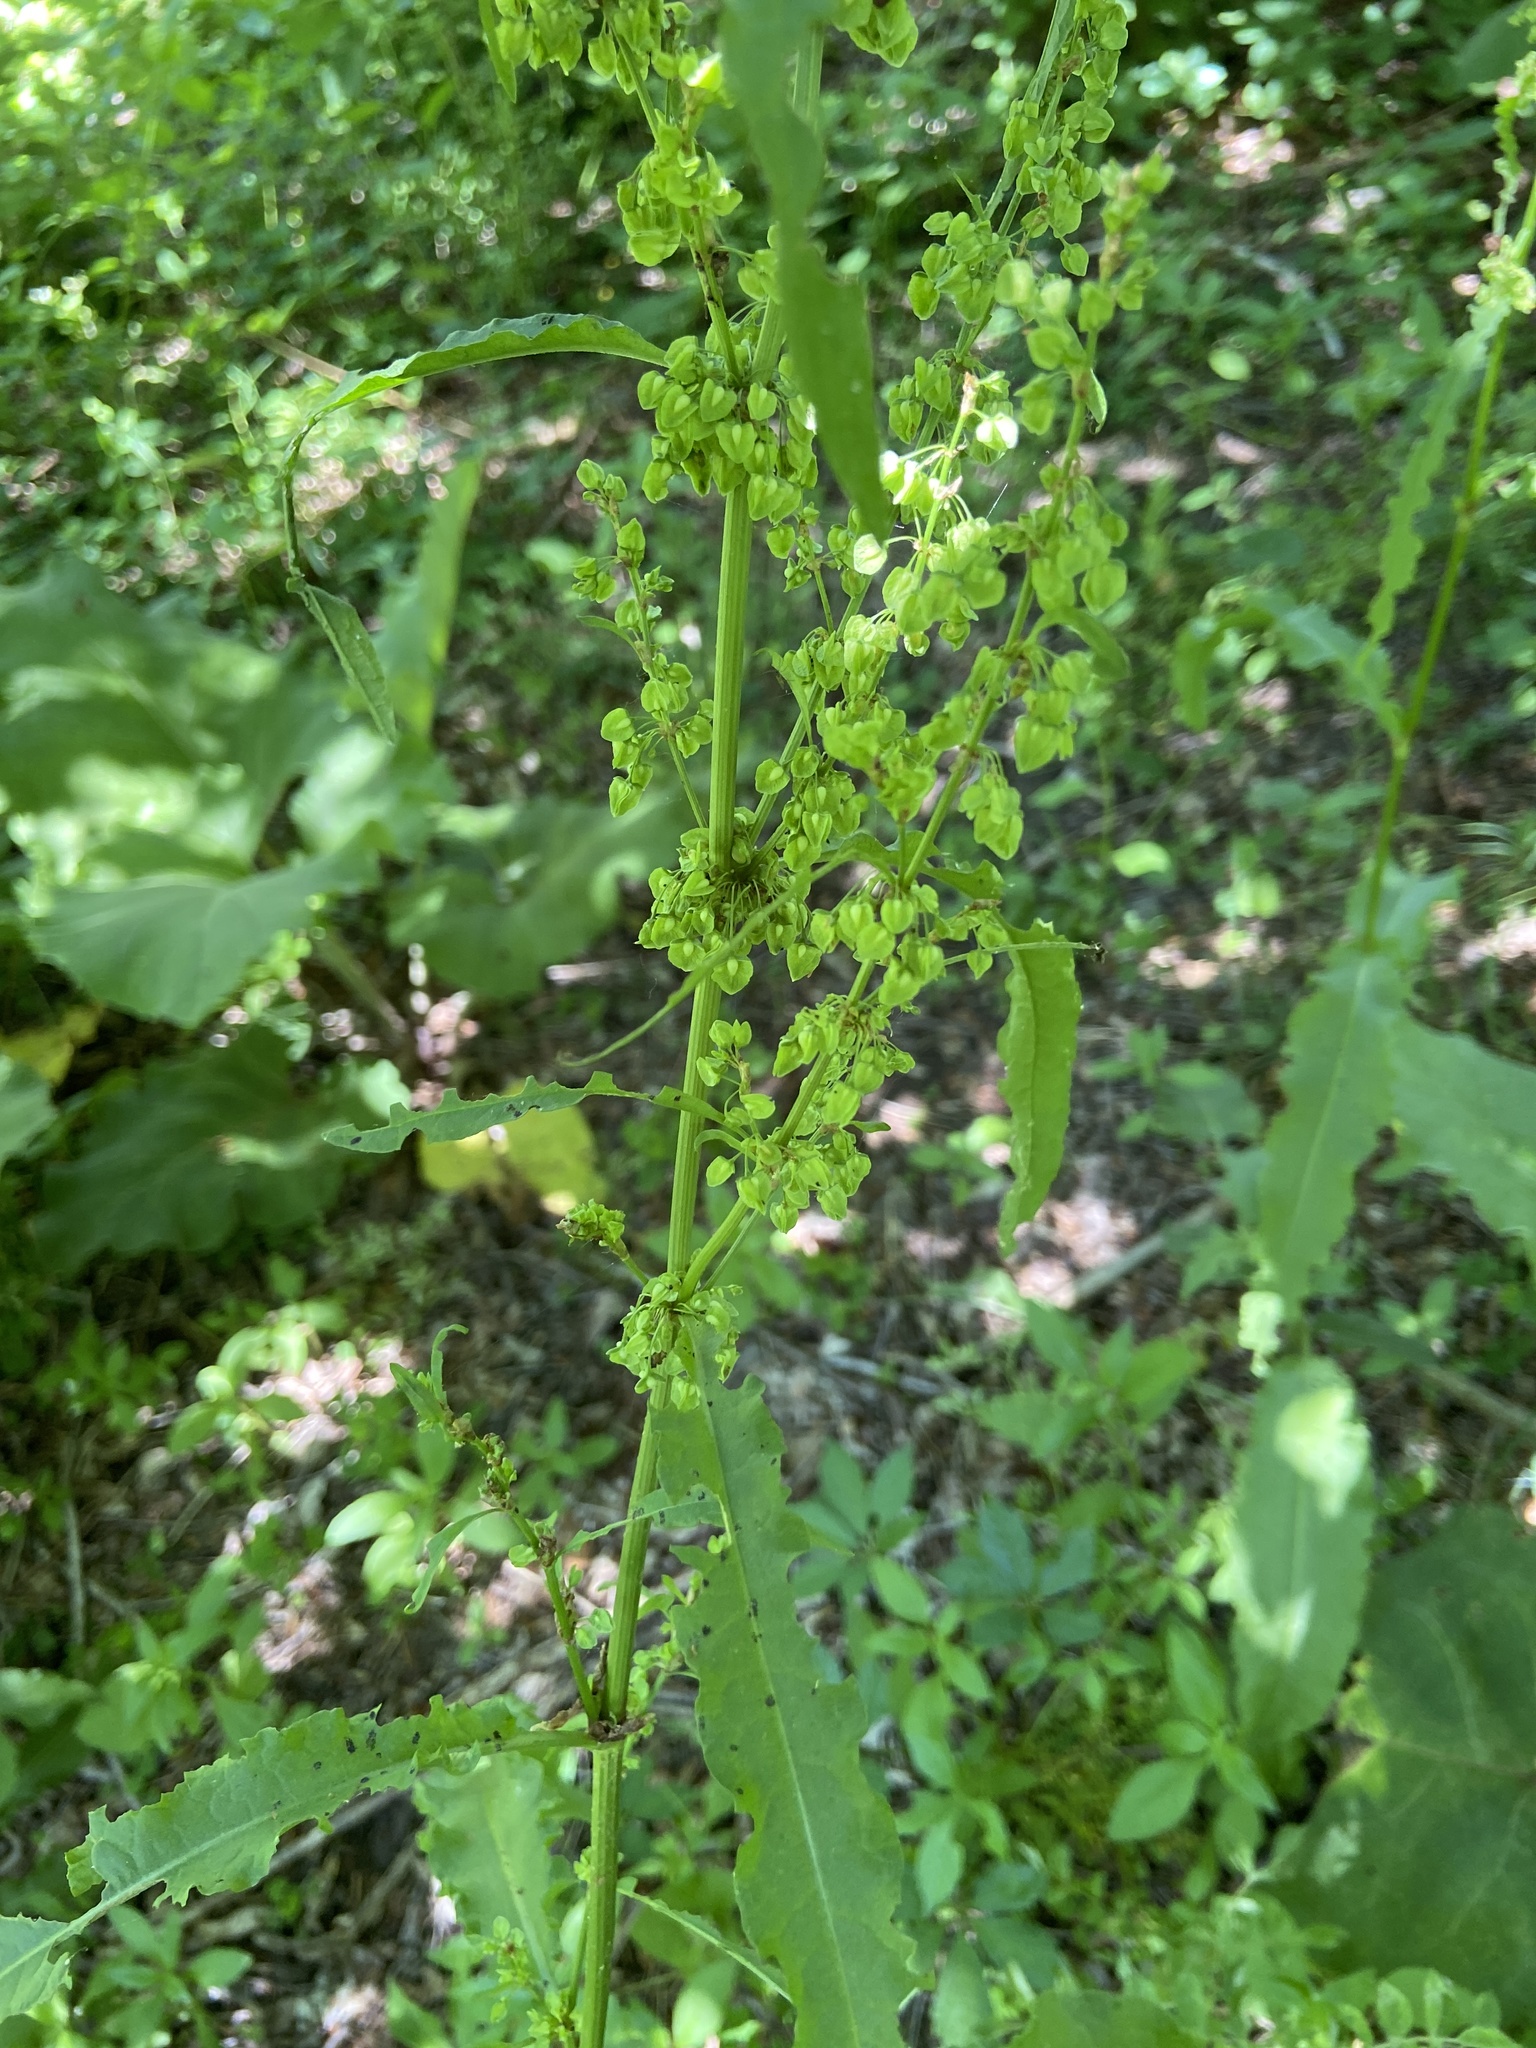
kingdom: Plantae
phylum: Tracheophyta
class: Magnoliopsida
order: Caryophyllales
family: Polygonaceae
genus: Rumex
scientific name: Rumex crispus
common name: Curled dock
